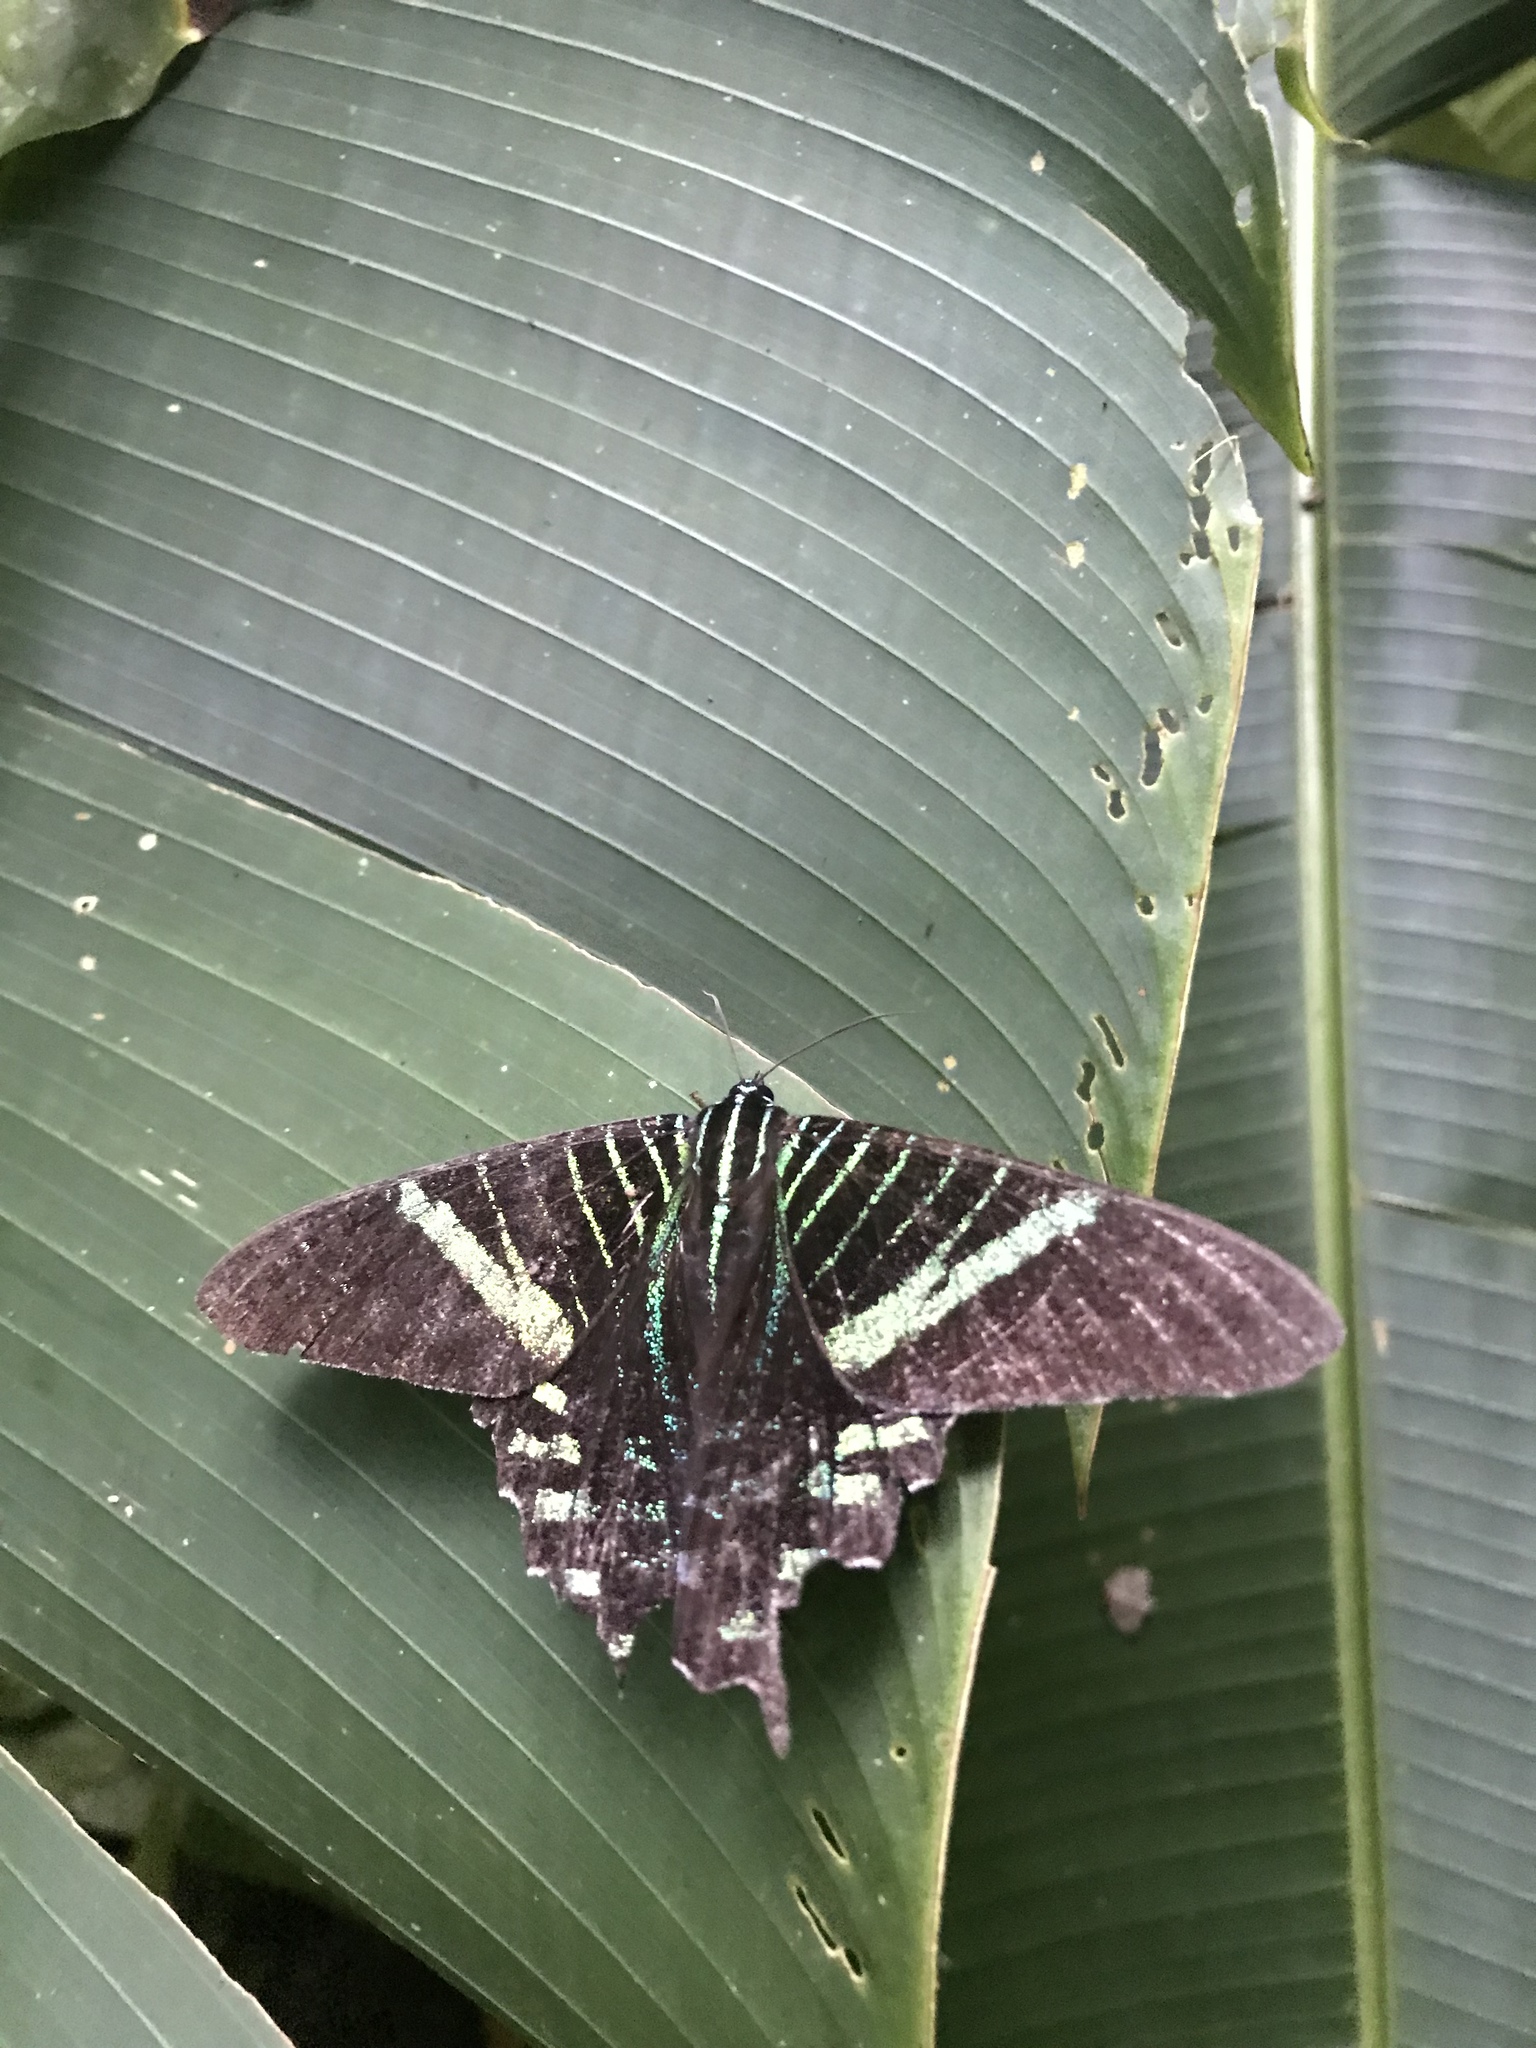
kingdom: Animalia
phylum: Arthropoda
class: Insecta
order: Lepidoptera
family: Uraniidae
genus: Urania
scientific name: Urania fulgens
